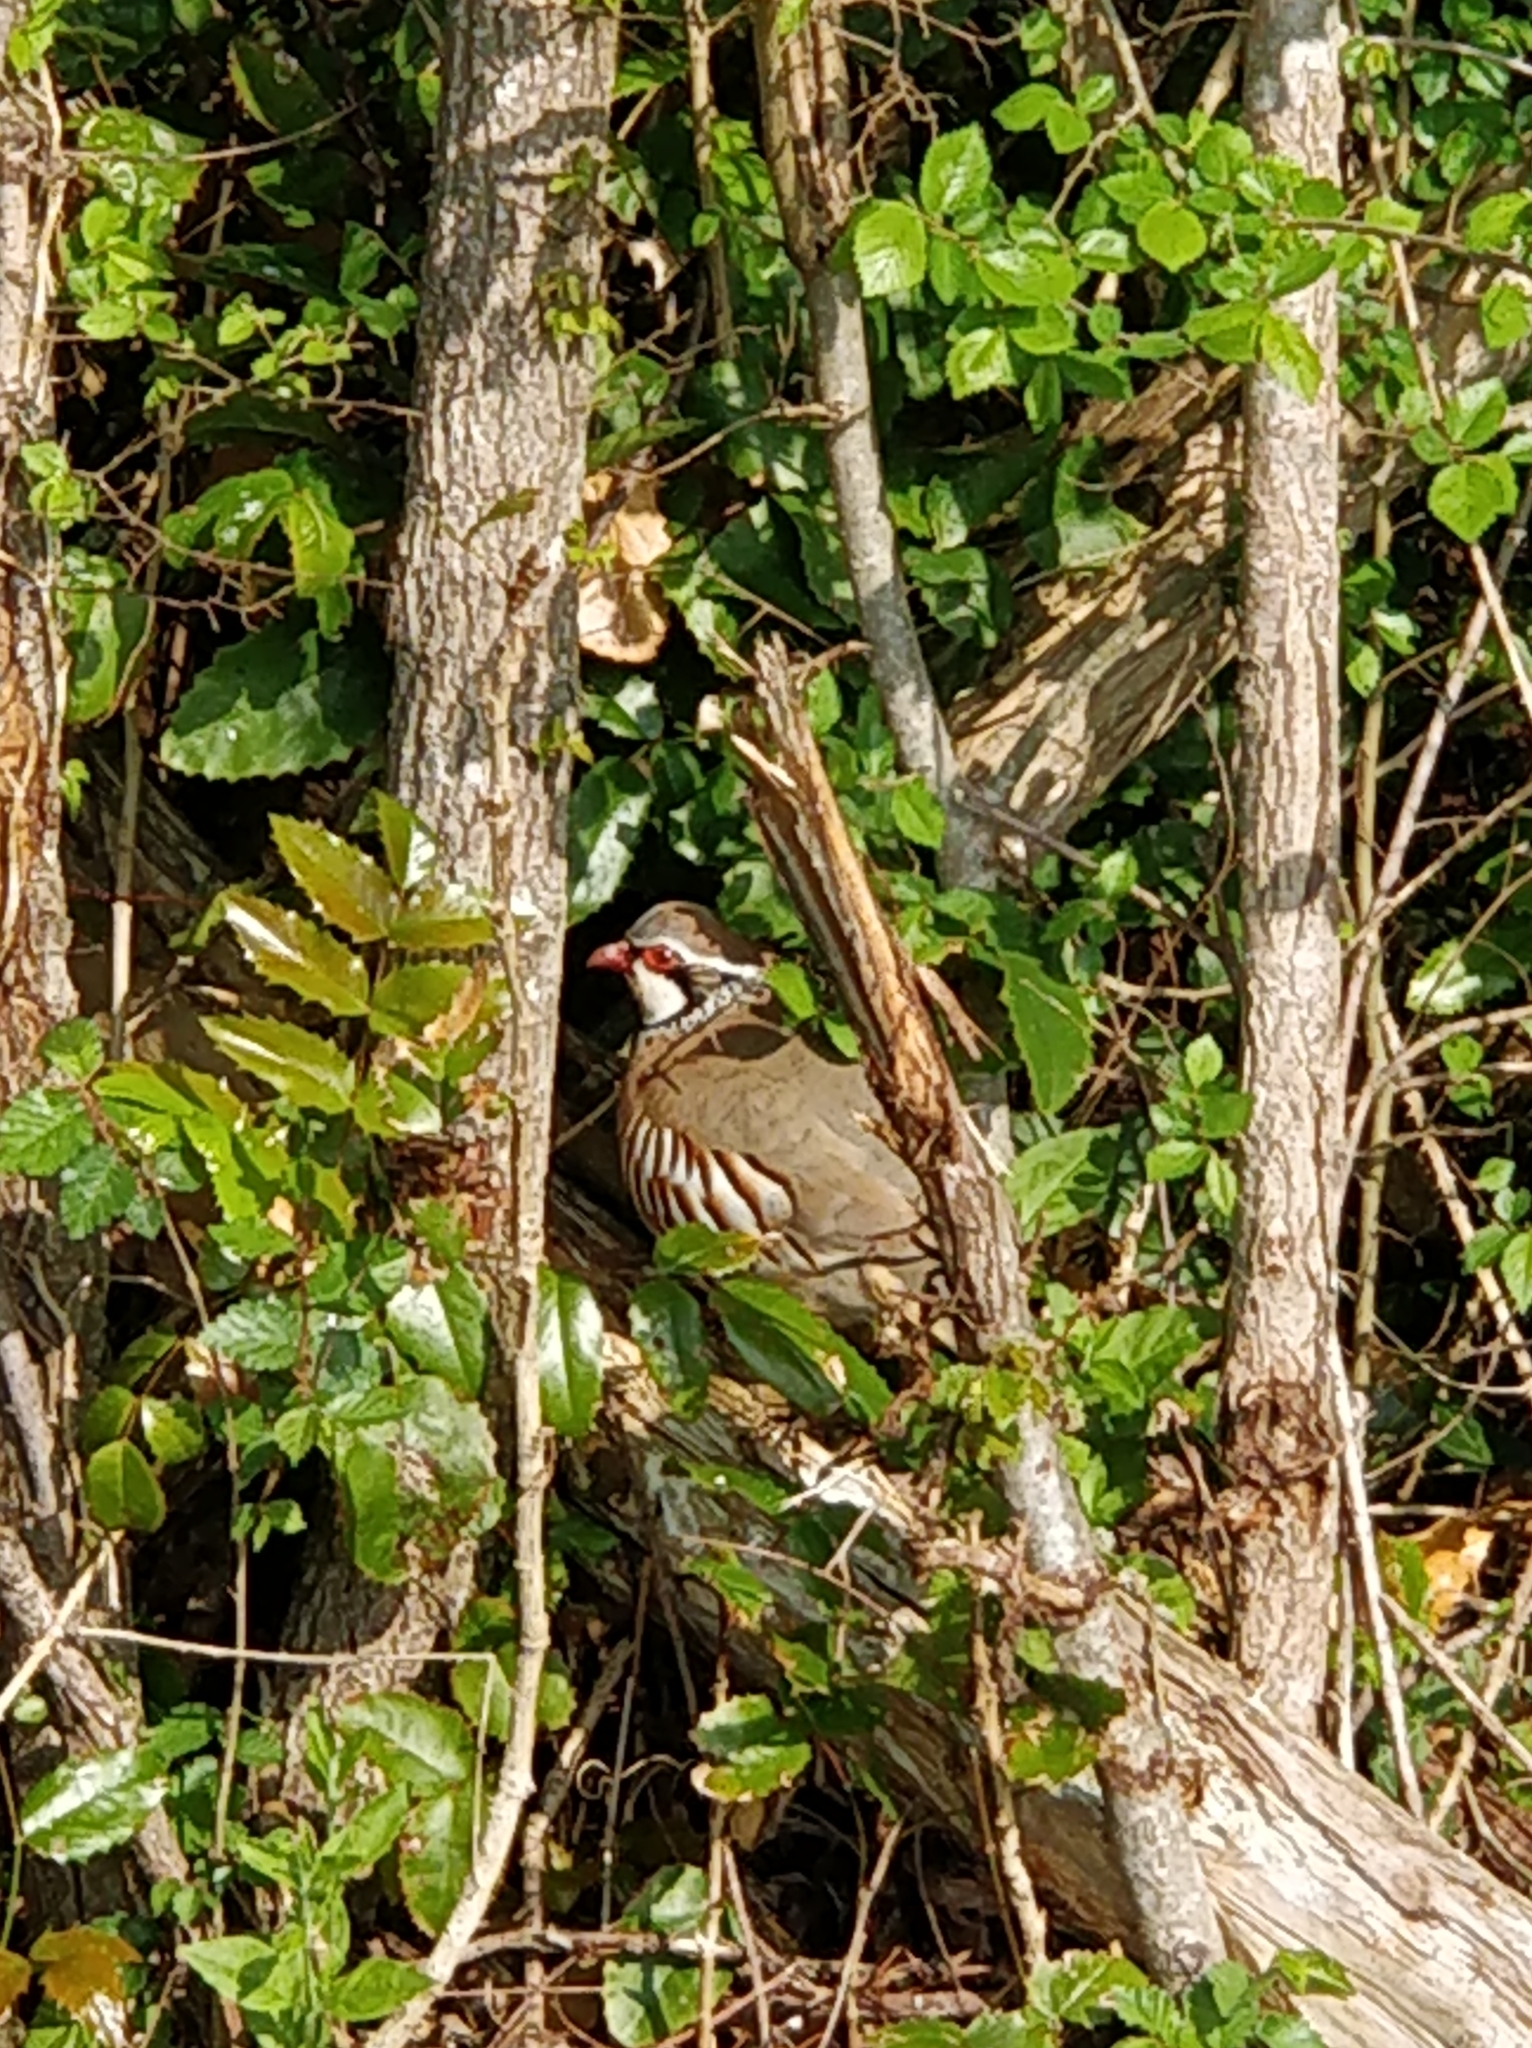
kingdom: Animalia
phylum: Chordata
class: Aves
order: Galliformes
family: Phasianidae
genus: Alectoris
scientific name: Alectoris rufa
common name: Red-legged partridge
